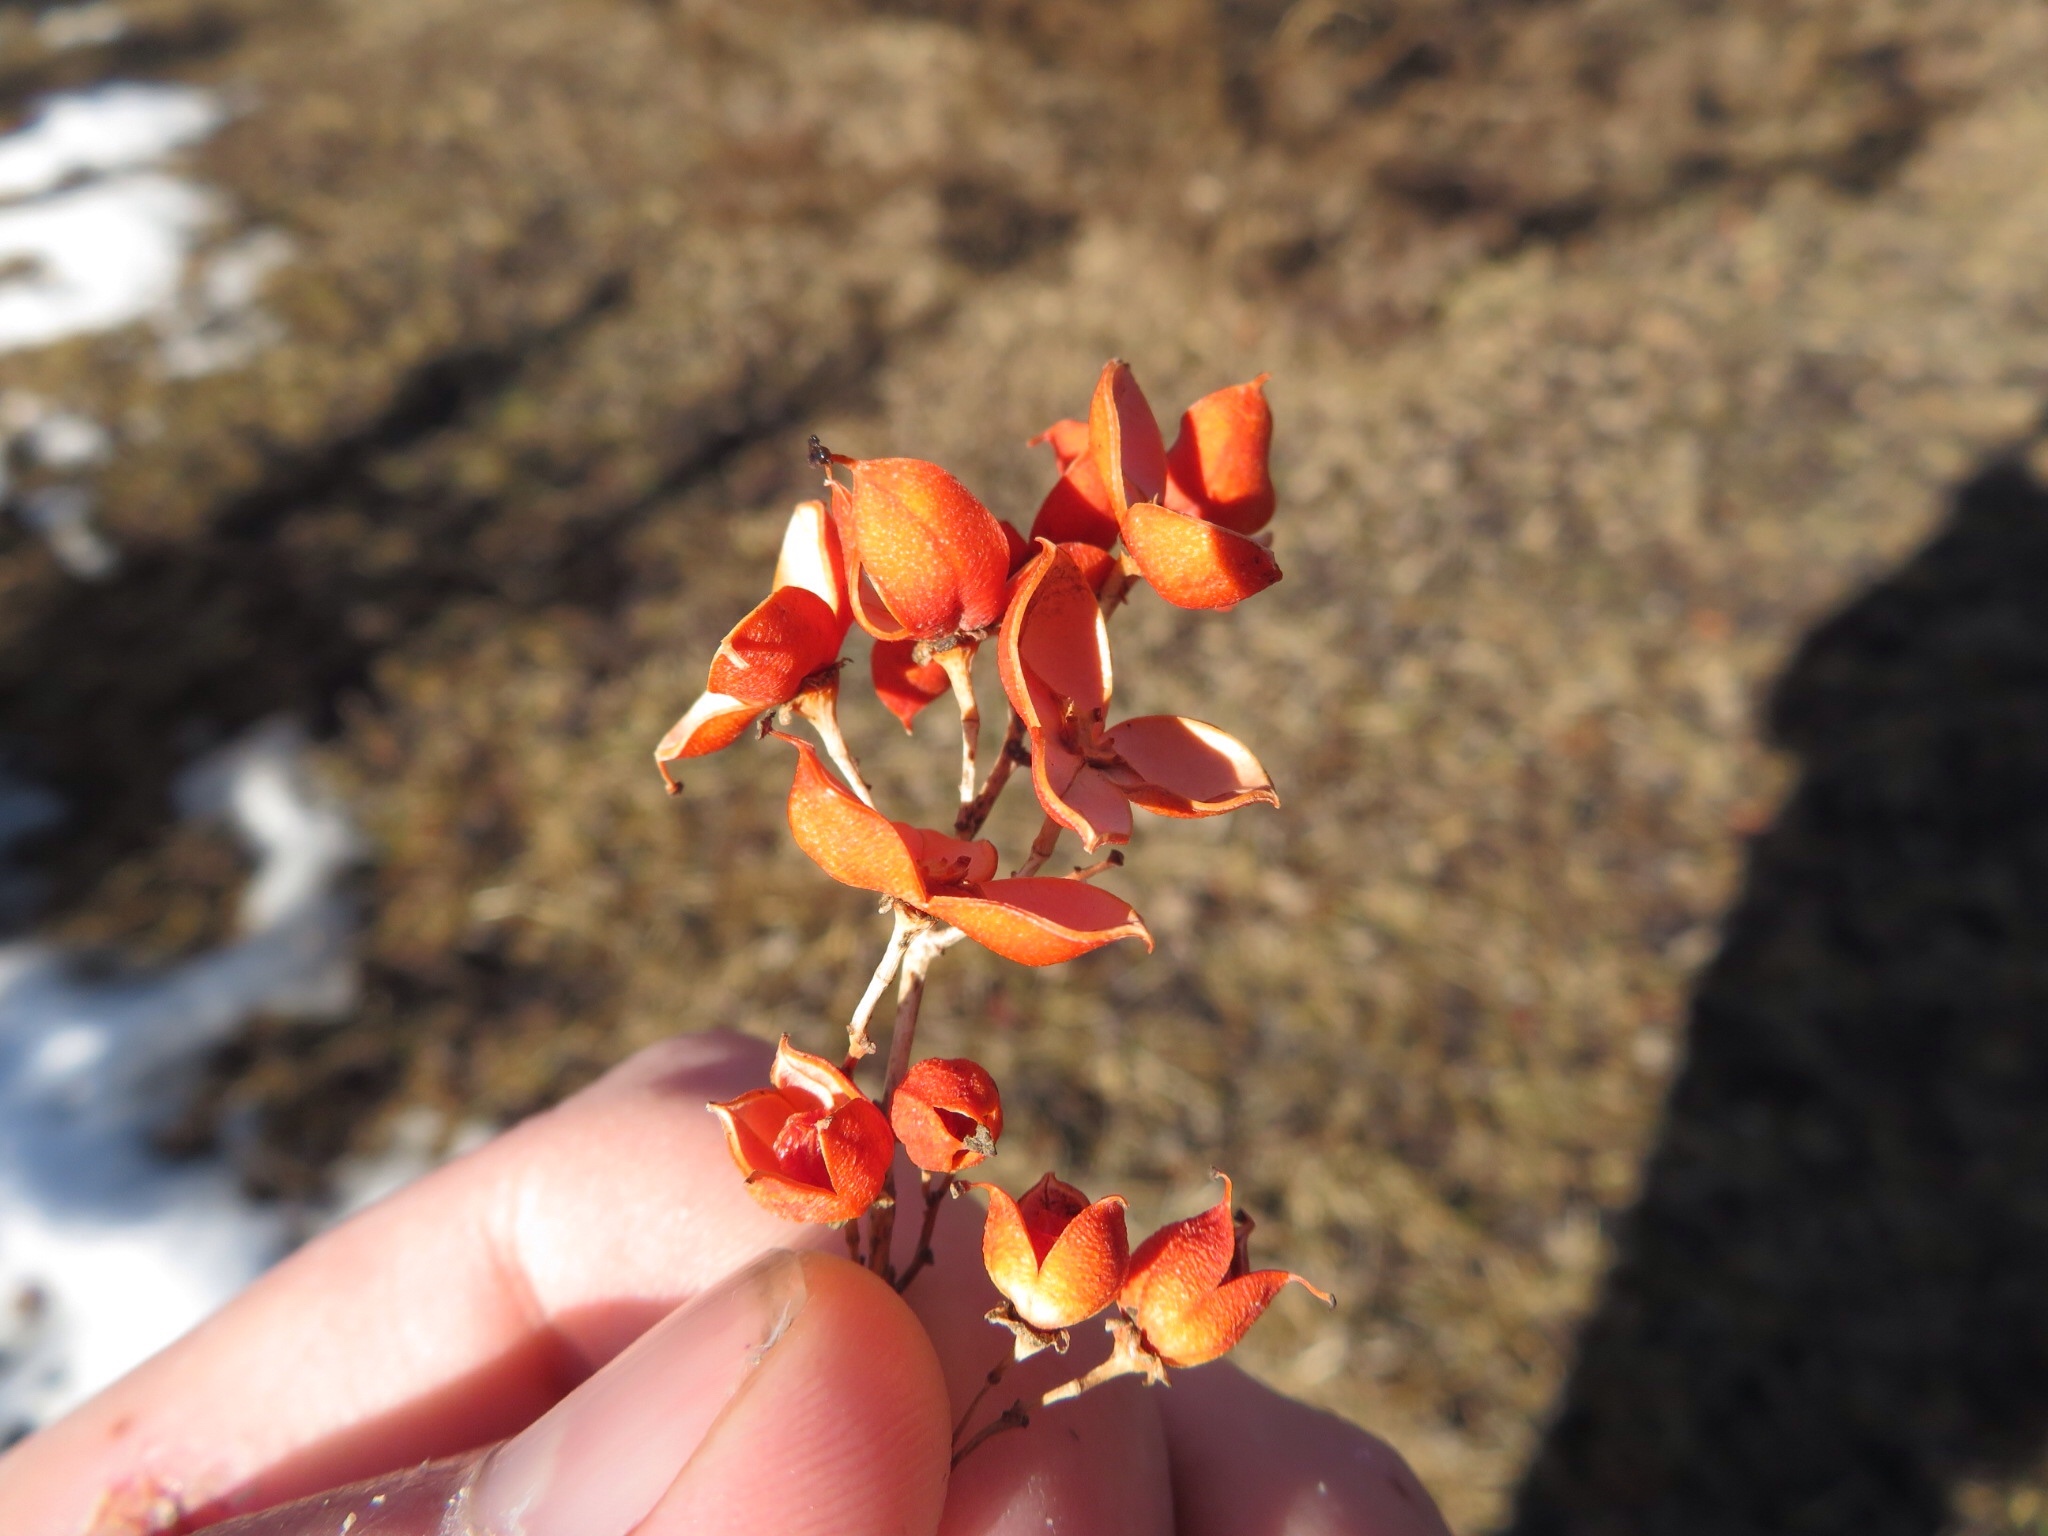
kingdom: Plantae
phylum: Tracheophyta
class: Magnoliopsida
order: Celastrales
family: Celastraceae
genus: Celastrus
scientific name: Celastrus scandens
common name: American bittersweet
